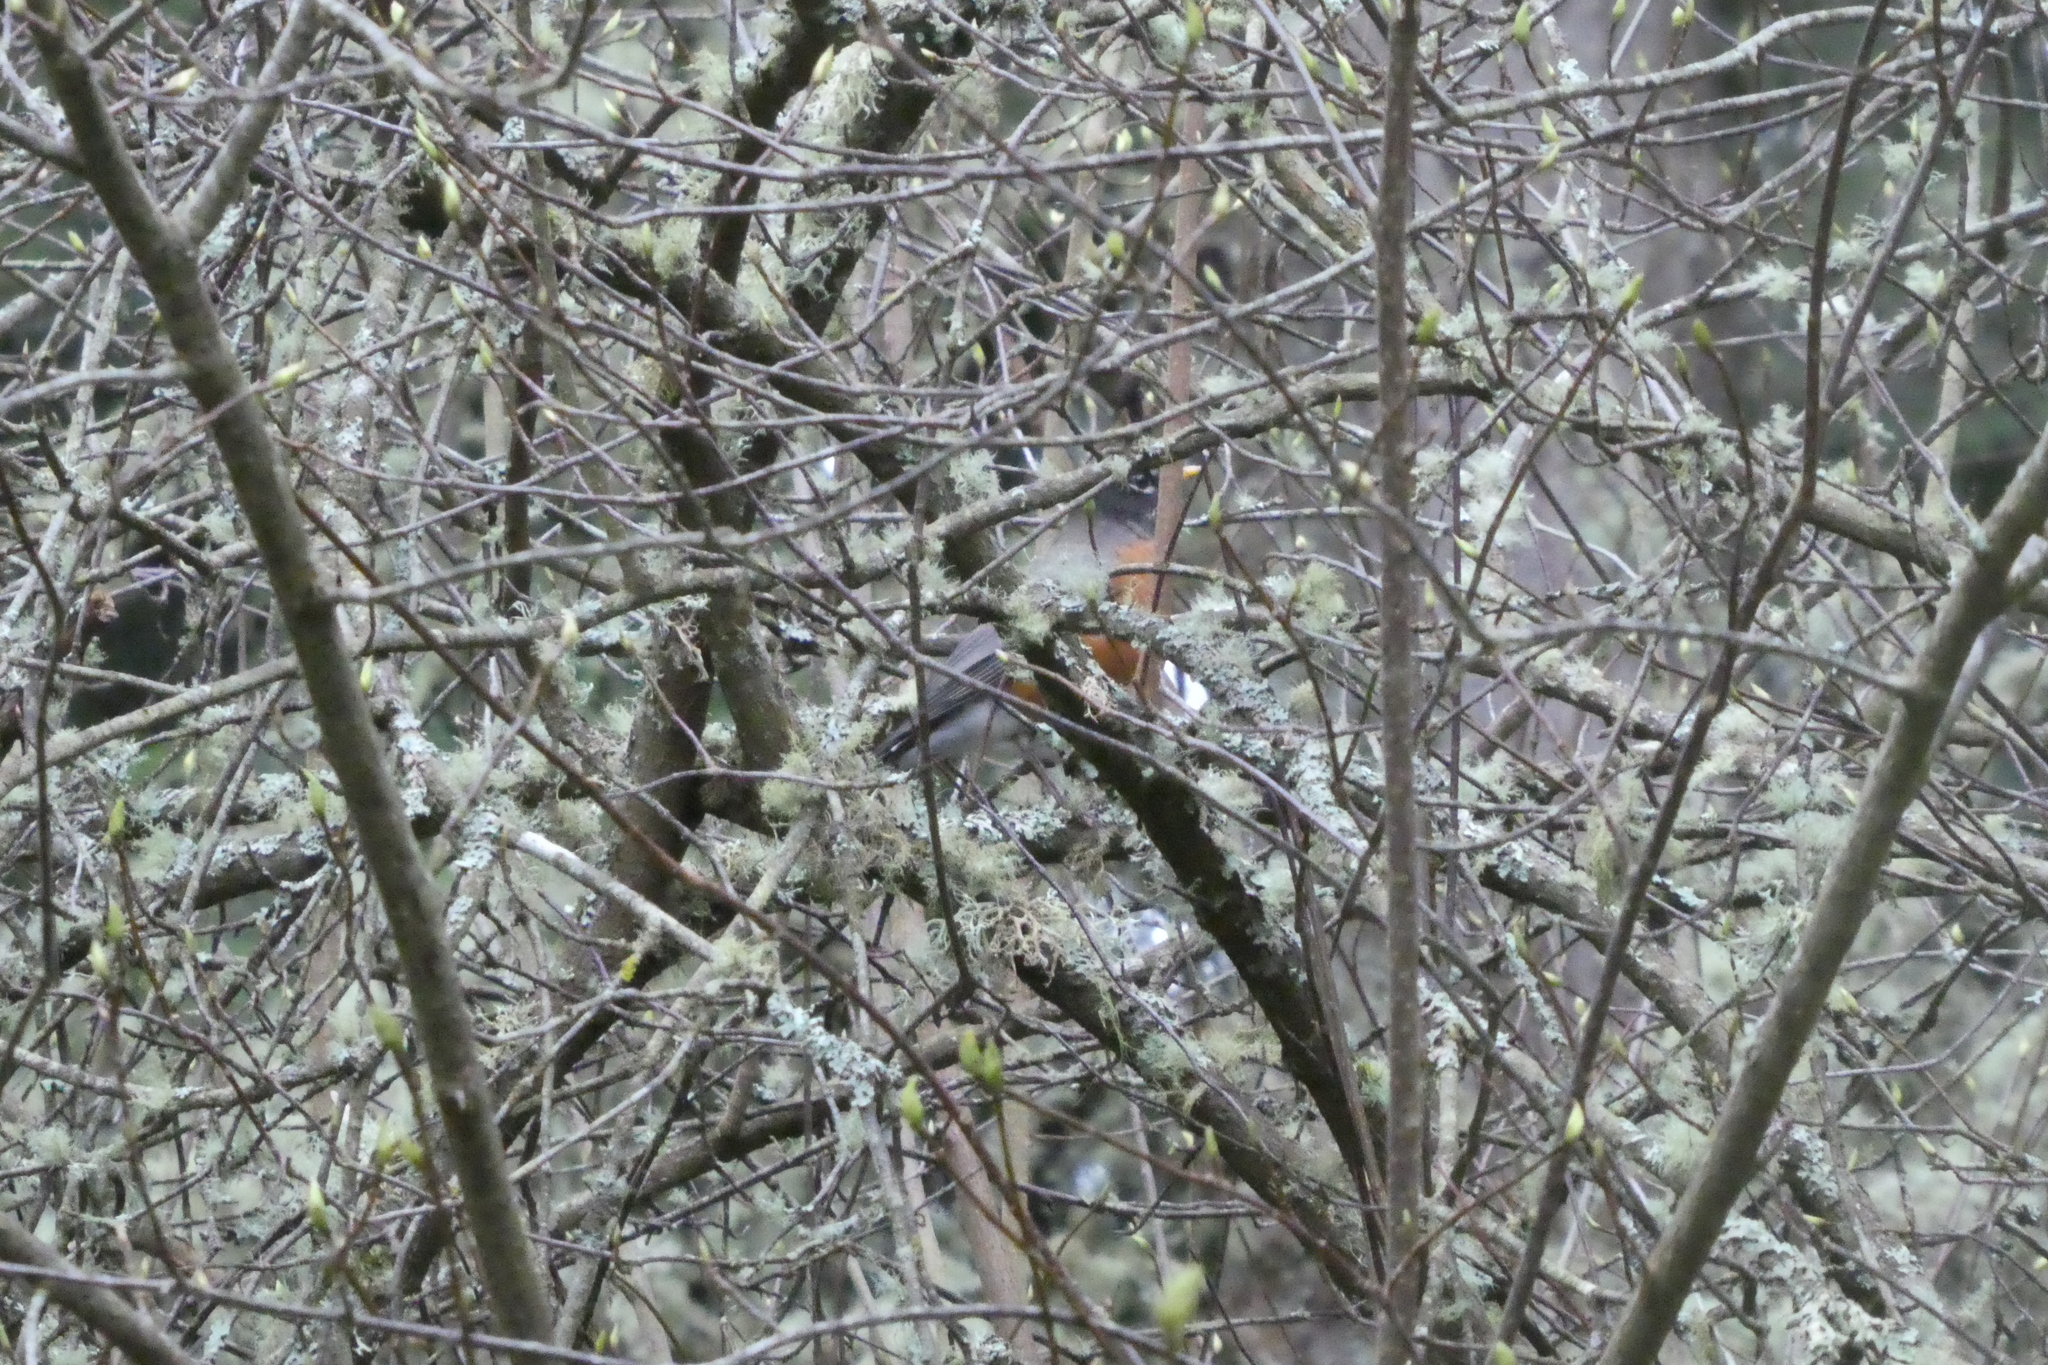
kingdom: Animalia
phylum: Chordata
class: Aves
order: Passeriformes
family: Turdidae
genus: Turdus
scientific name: Turdus migratorius
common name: American robin
